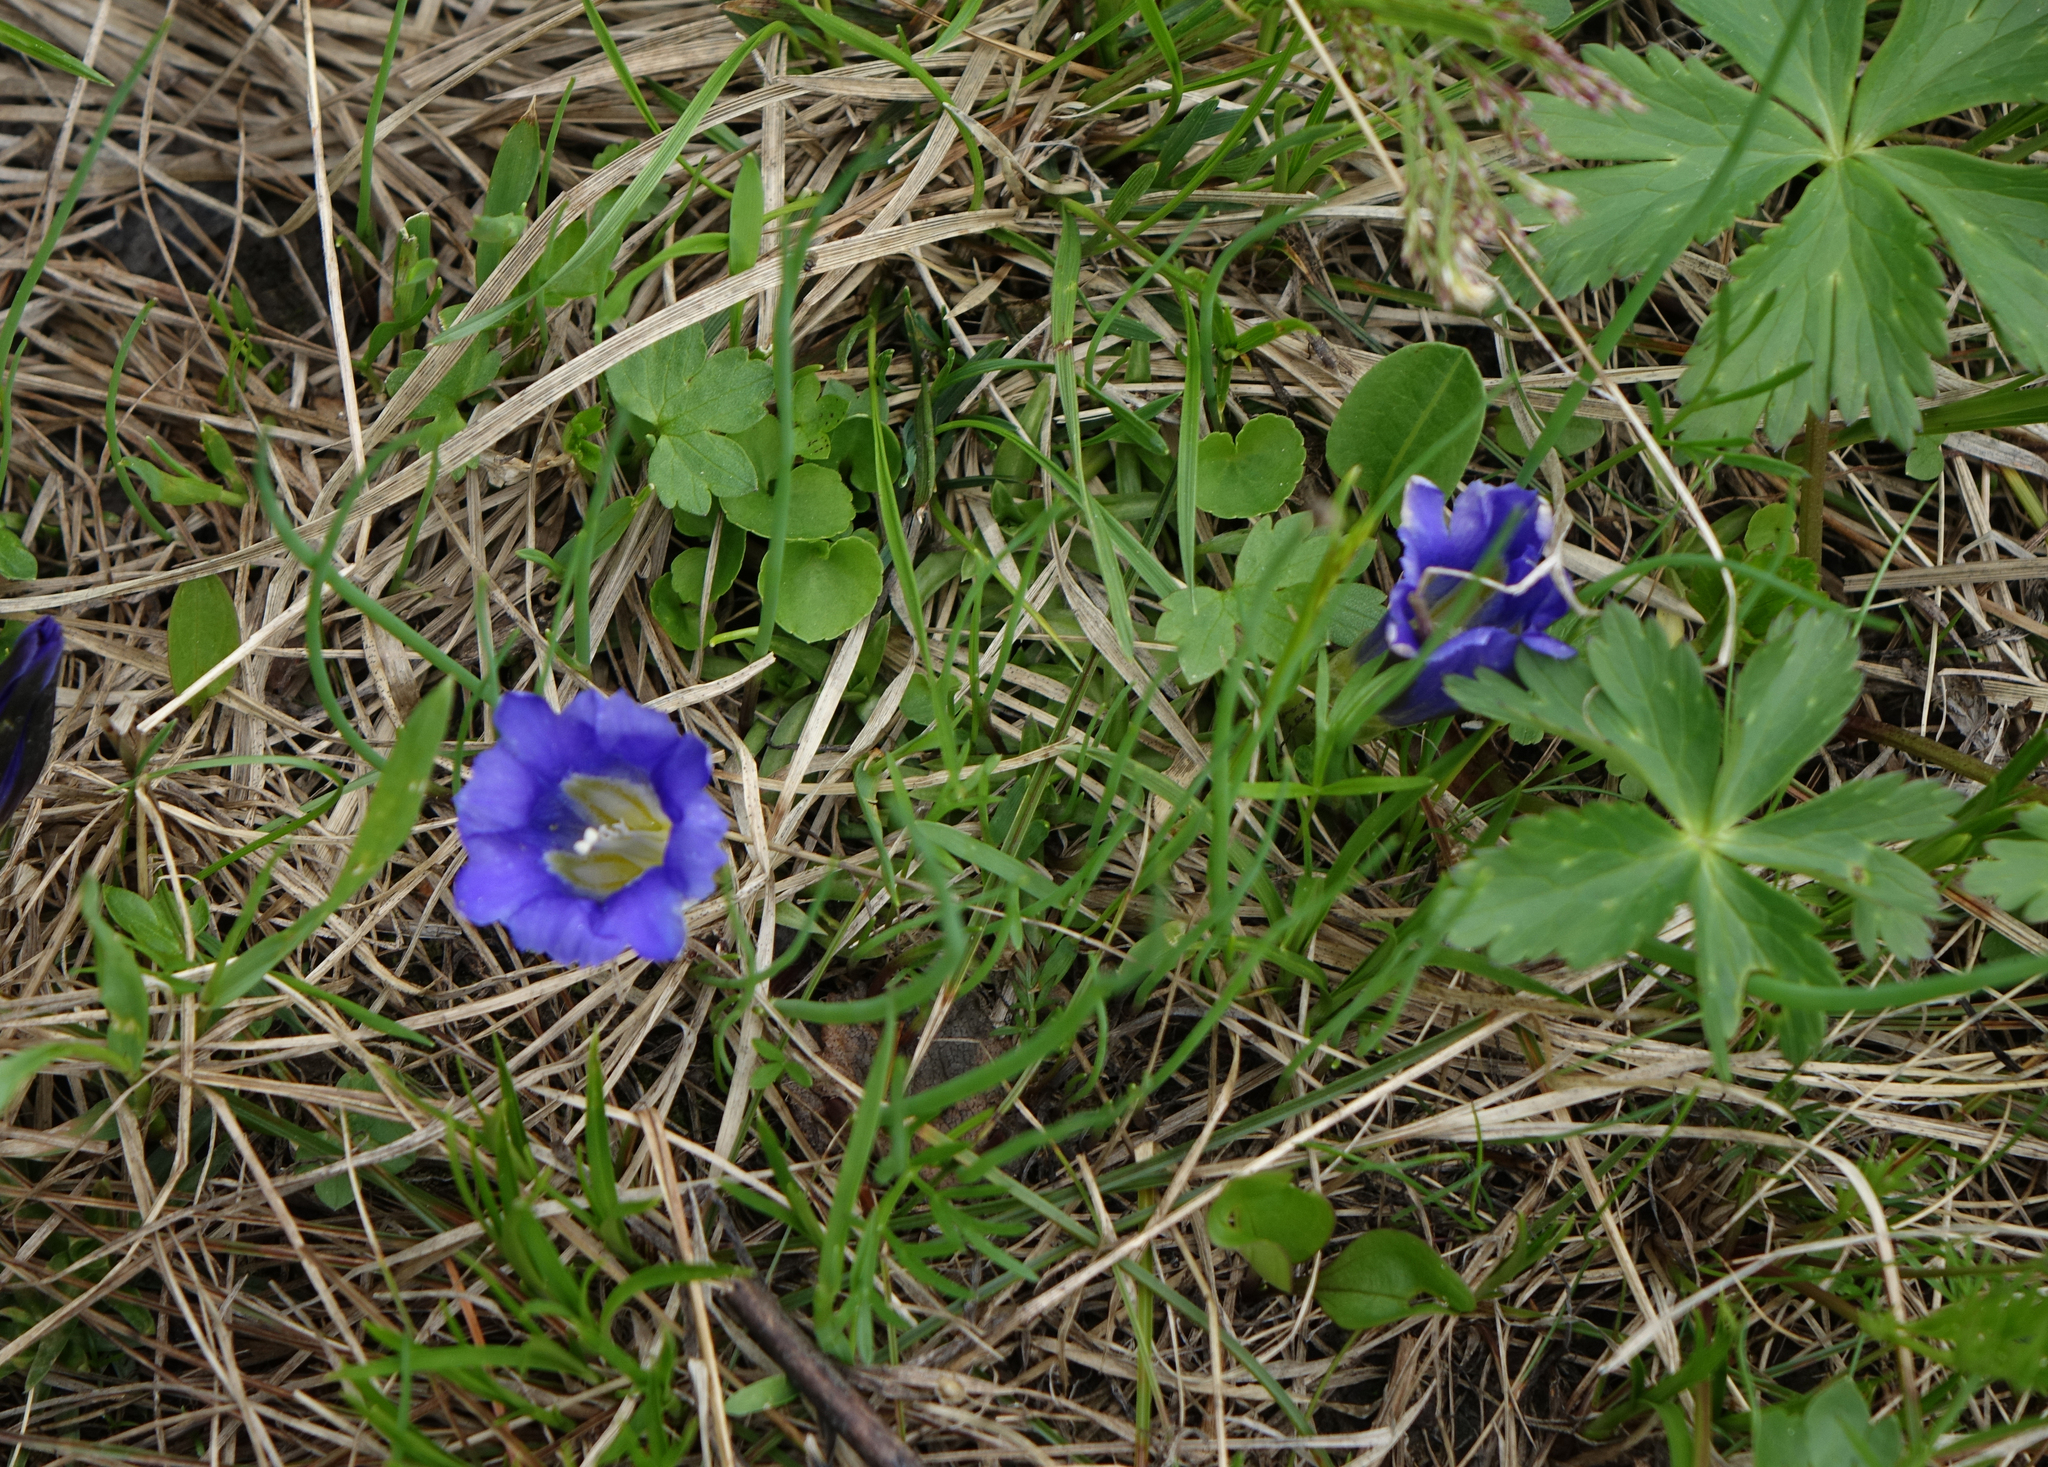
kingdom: Plantae
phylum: Tracheophyta
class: Magnoliopsida
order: Gentianales
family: Gentianaceae
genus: Gentiana
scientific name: Gentiana grandiflora
